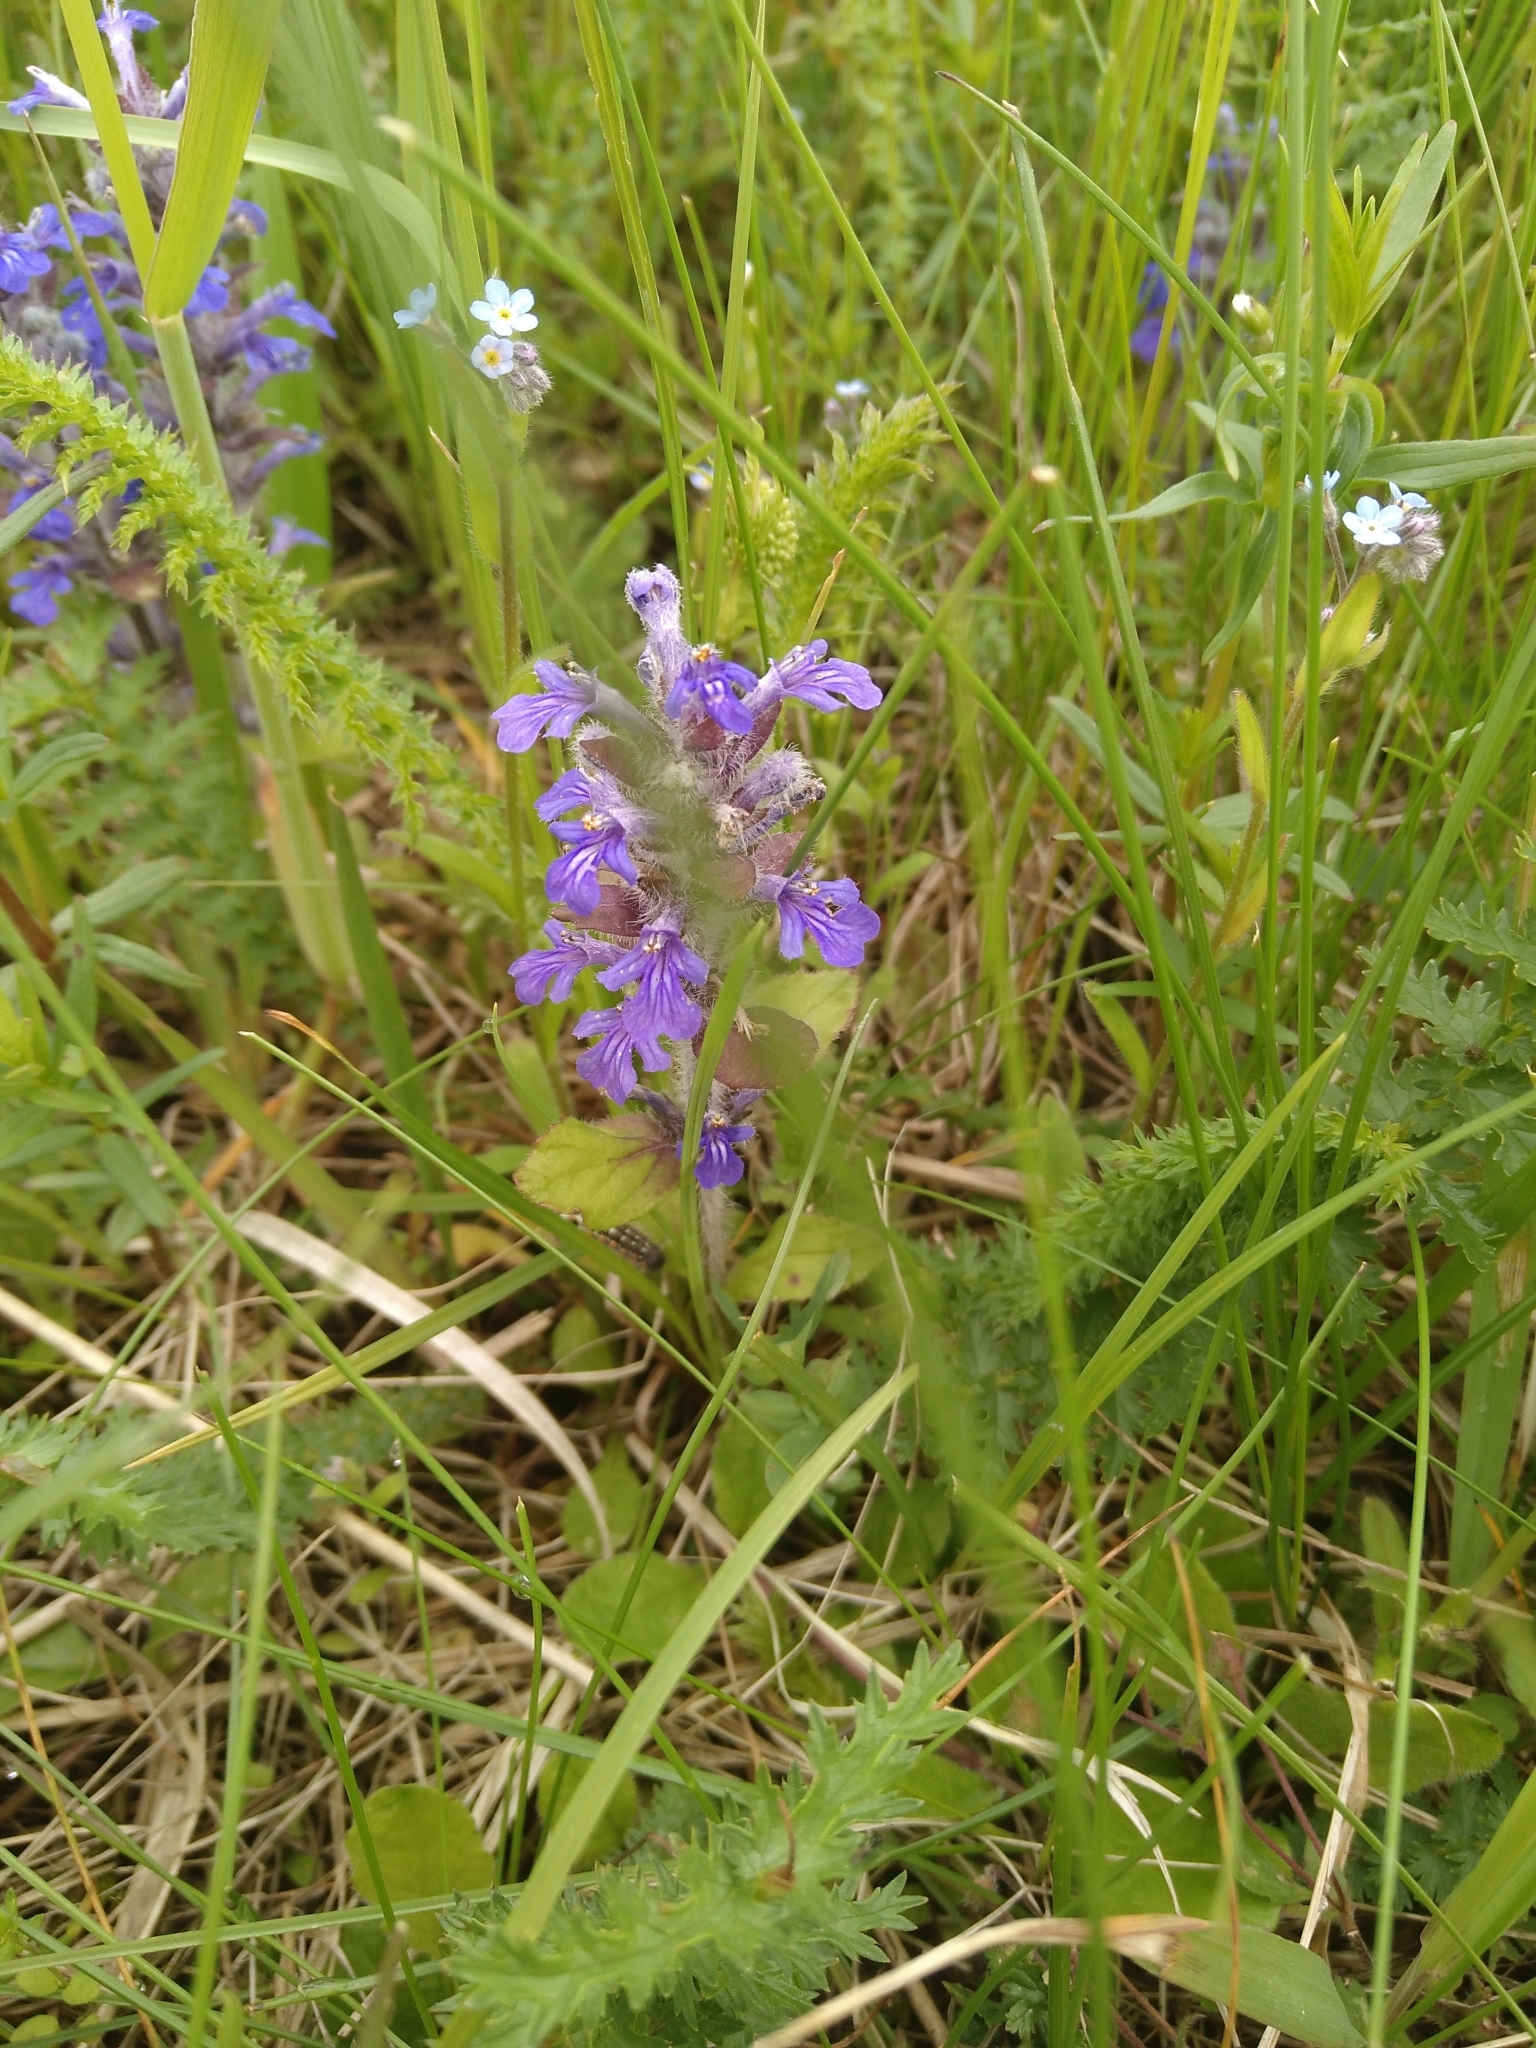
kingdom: Plantae
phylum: Tracheophyta
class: Magnoliopsida
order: Lamiales
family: Lamiaceae
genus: Ajuga
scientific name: Ajuga reptans
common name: Bugle
